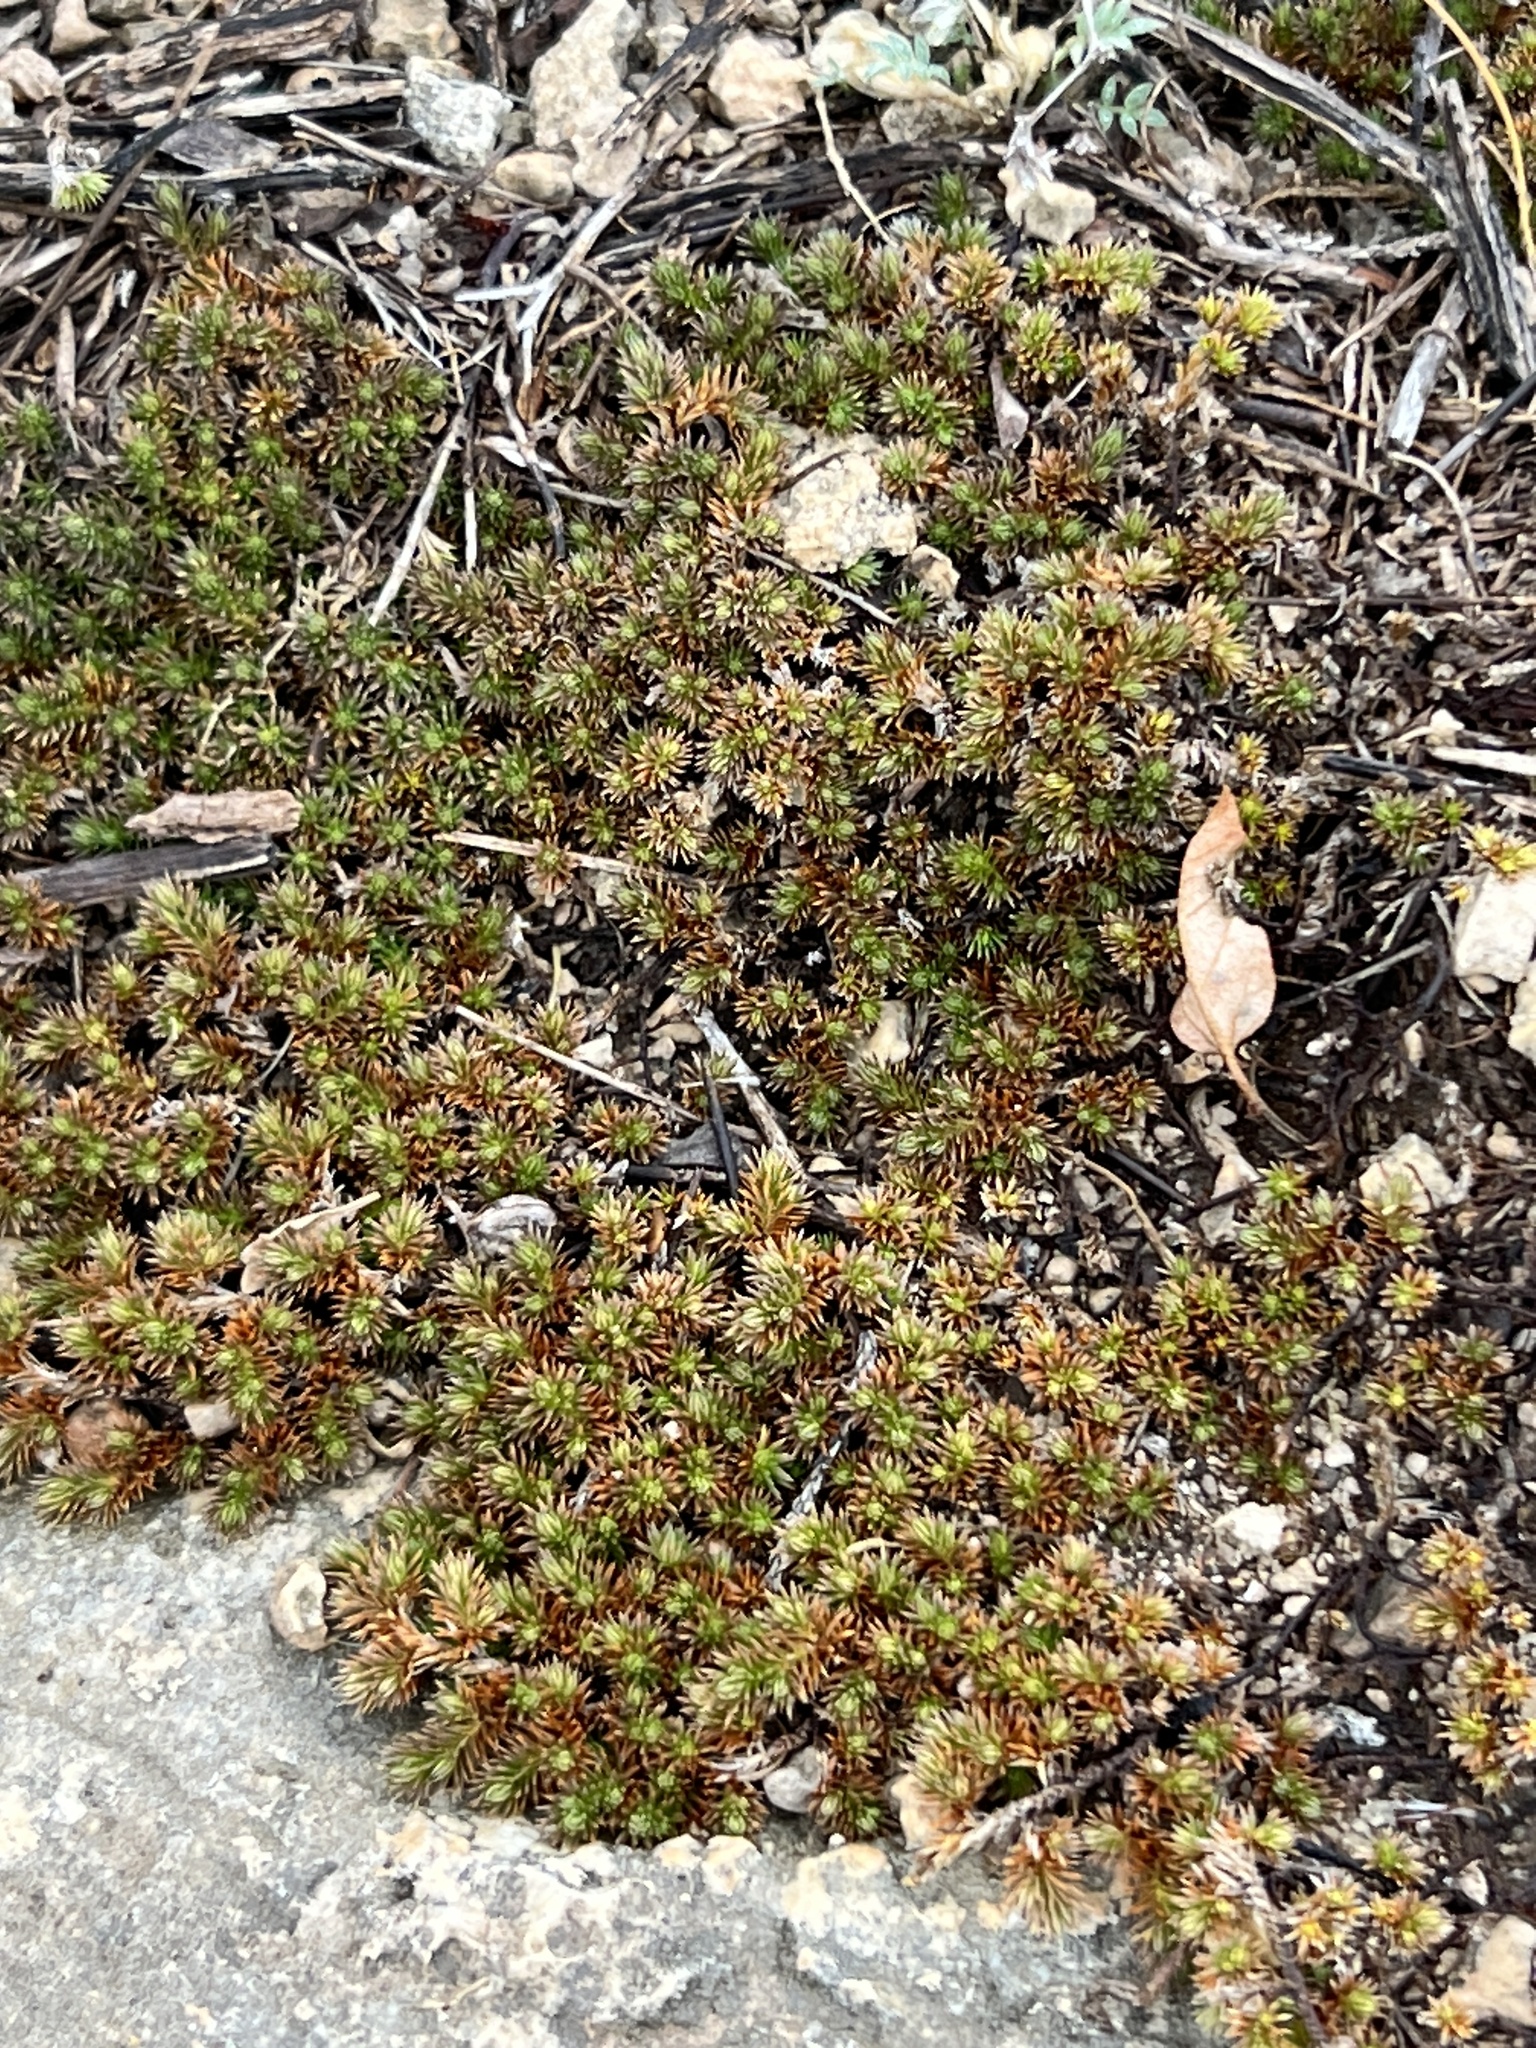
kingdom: Plantae
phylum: Tracheophyta
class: Lycopodiopsida
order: Selaginellales
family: Selaginellaceae
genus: Selaginella
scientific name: Selaginella wrightii
